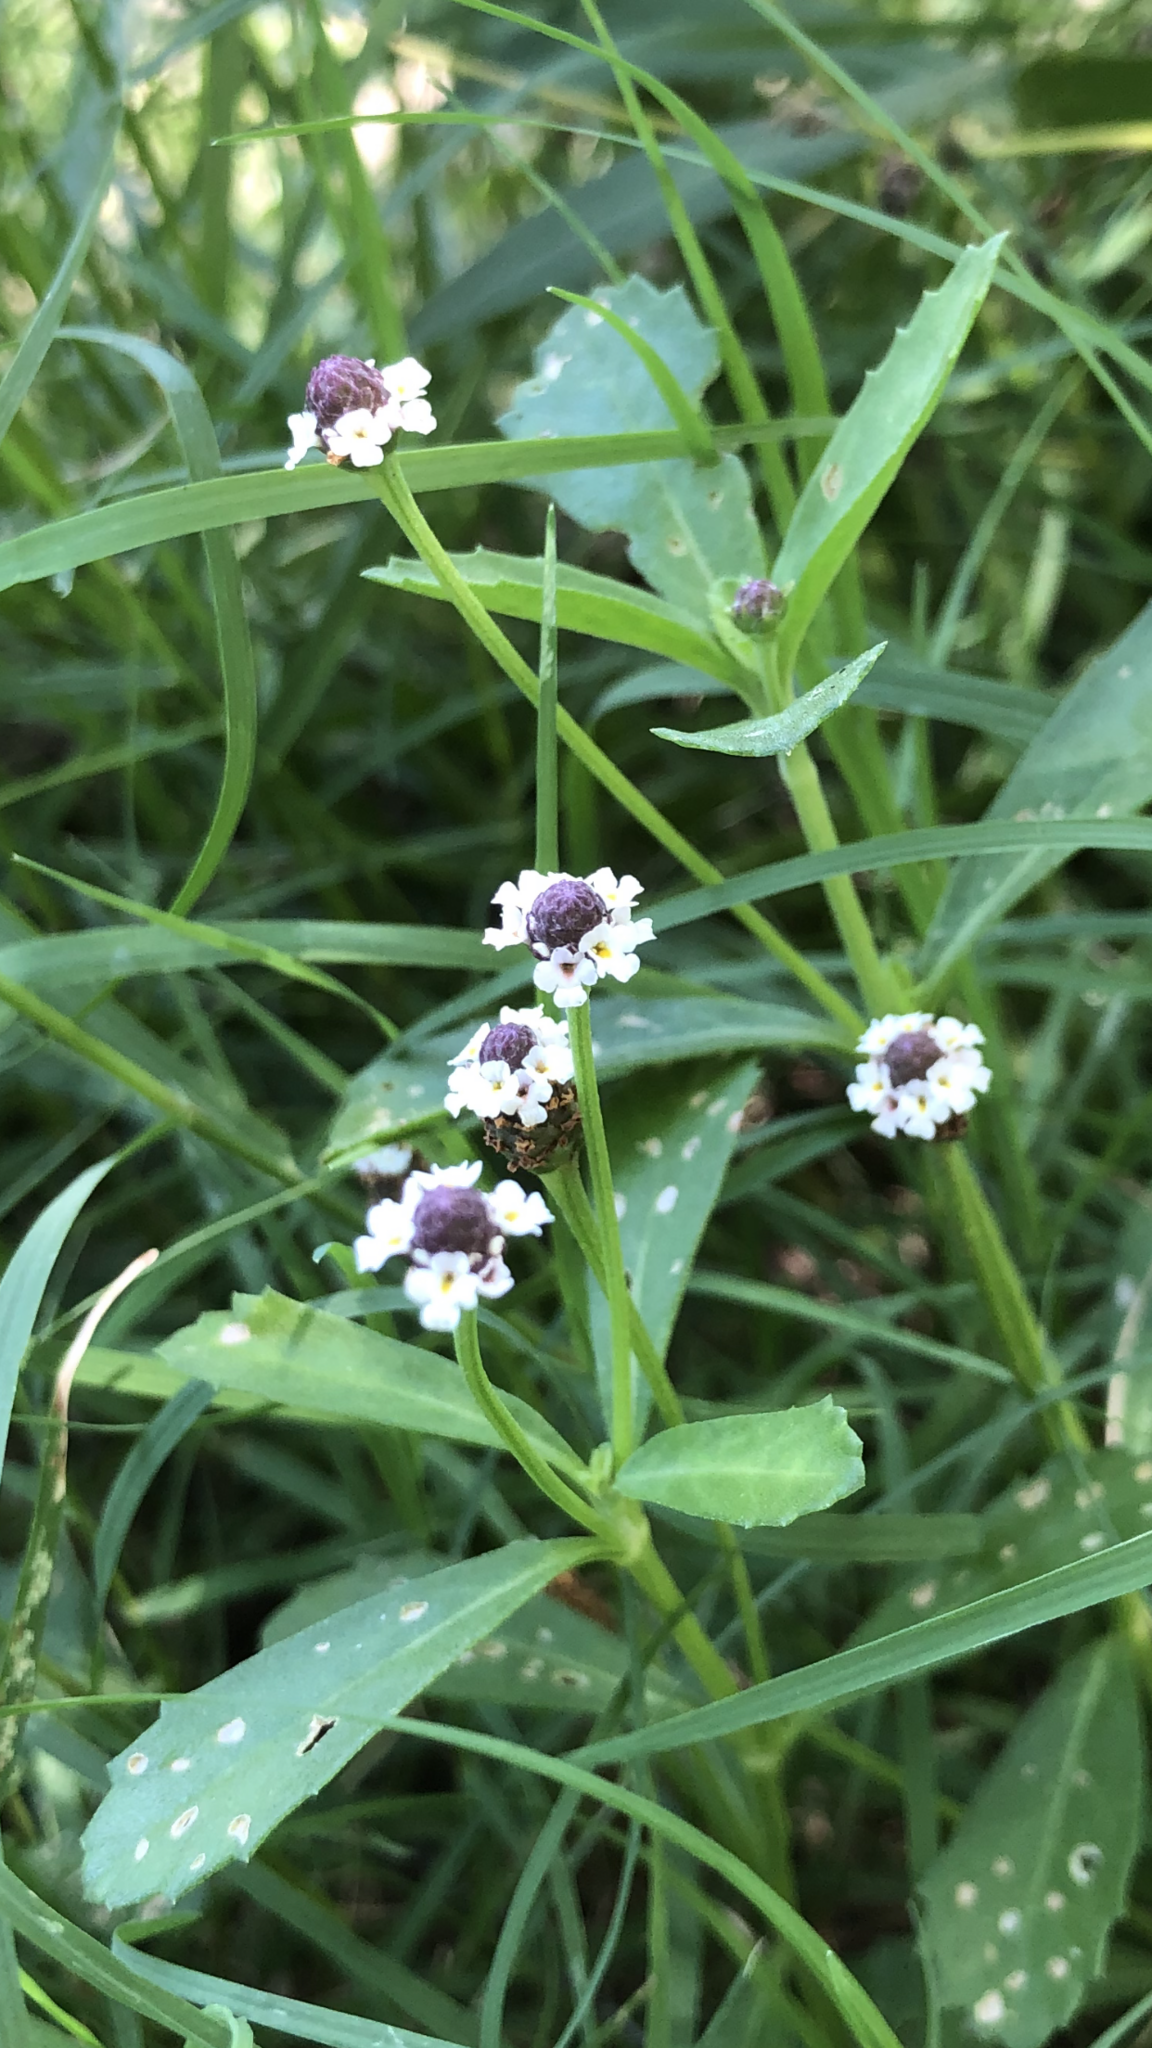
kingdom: Plantae
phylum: Tracheophyta
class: Magnoliopsida
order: Lamiales
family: Verbenaceae
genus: Phyla
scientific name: Phyla nodiflora
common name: Frogfruit
